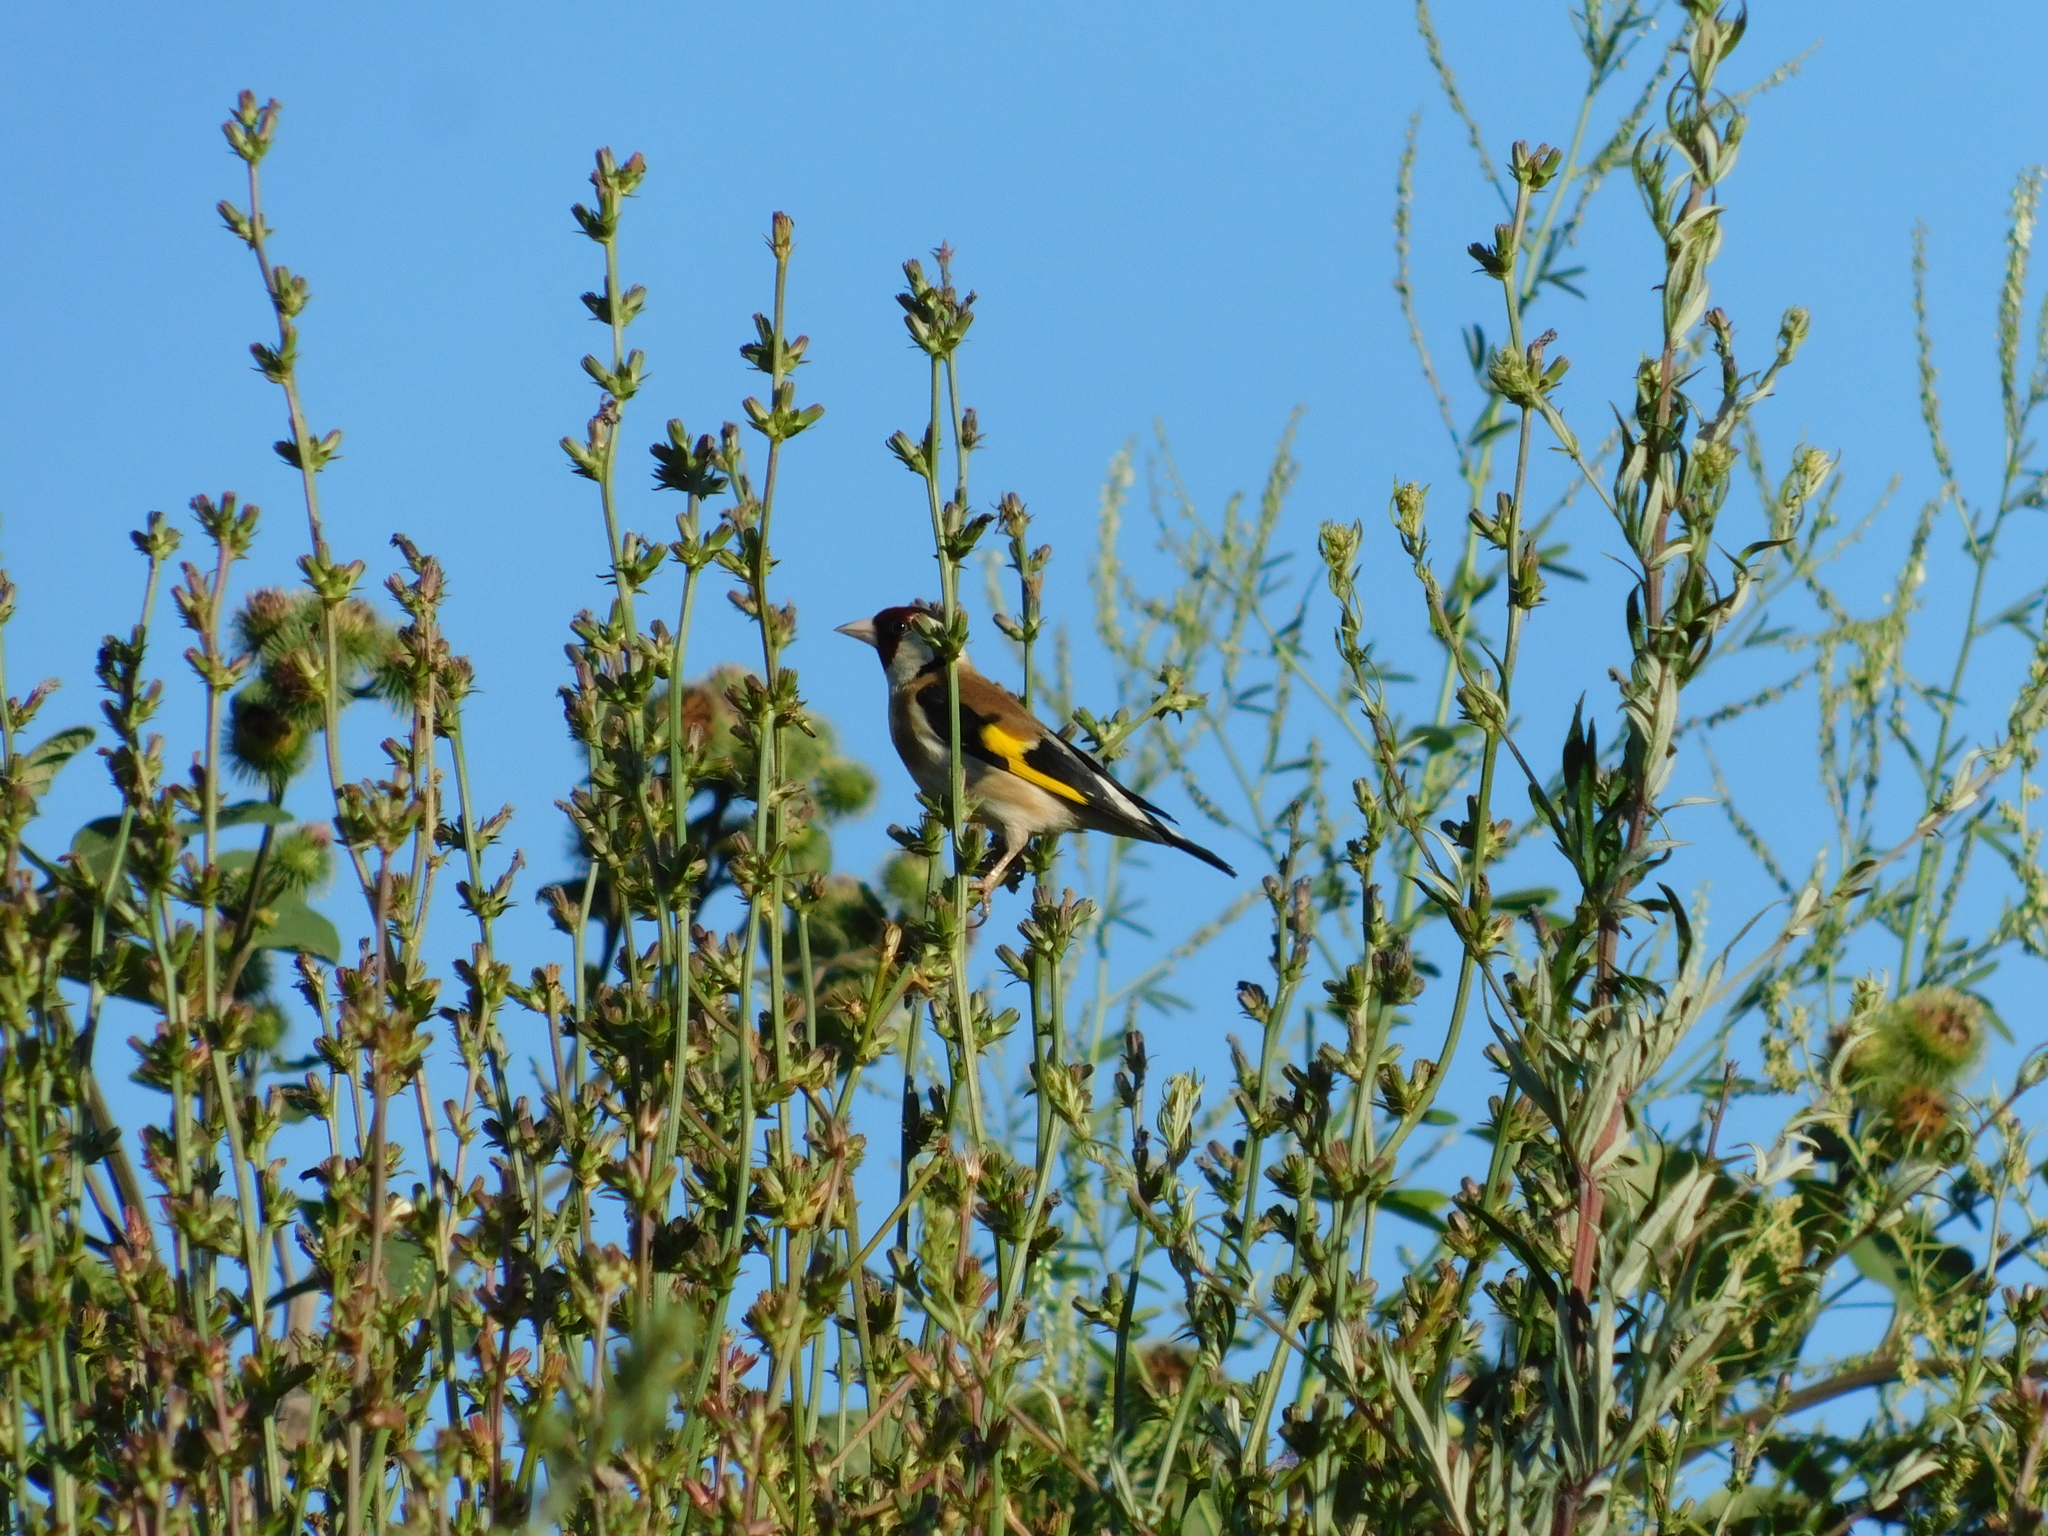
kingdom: Animalia
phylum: Chordata
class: Aves
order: Passeriformes
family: Fringillidae
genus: Carduelis
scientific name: Carduelis carduelis
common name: European goldfinch
